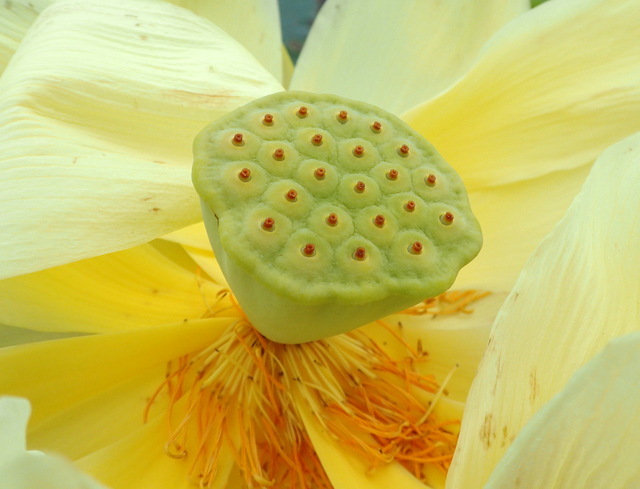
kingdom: Plantae
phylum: Tracheophyta
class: Magnoliopsida
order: Proteales
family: Nelumbonaceae
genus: Nelumbo
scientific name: Nelumbo lutea
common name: American lotus
